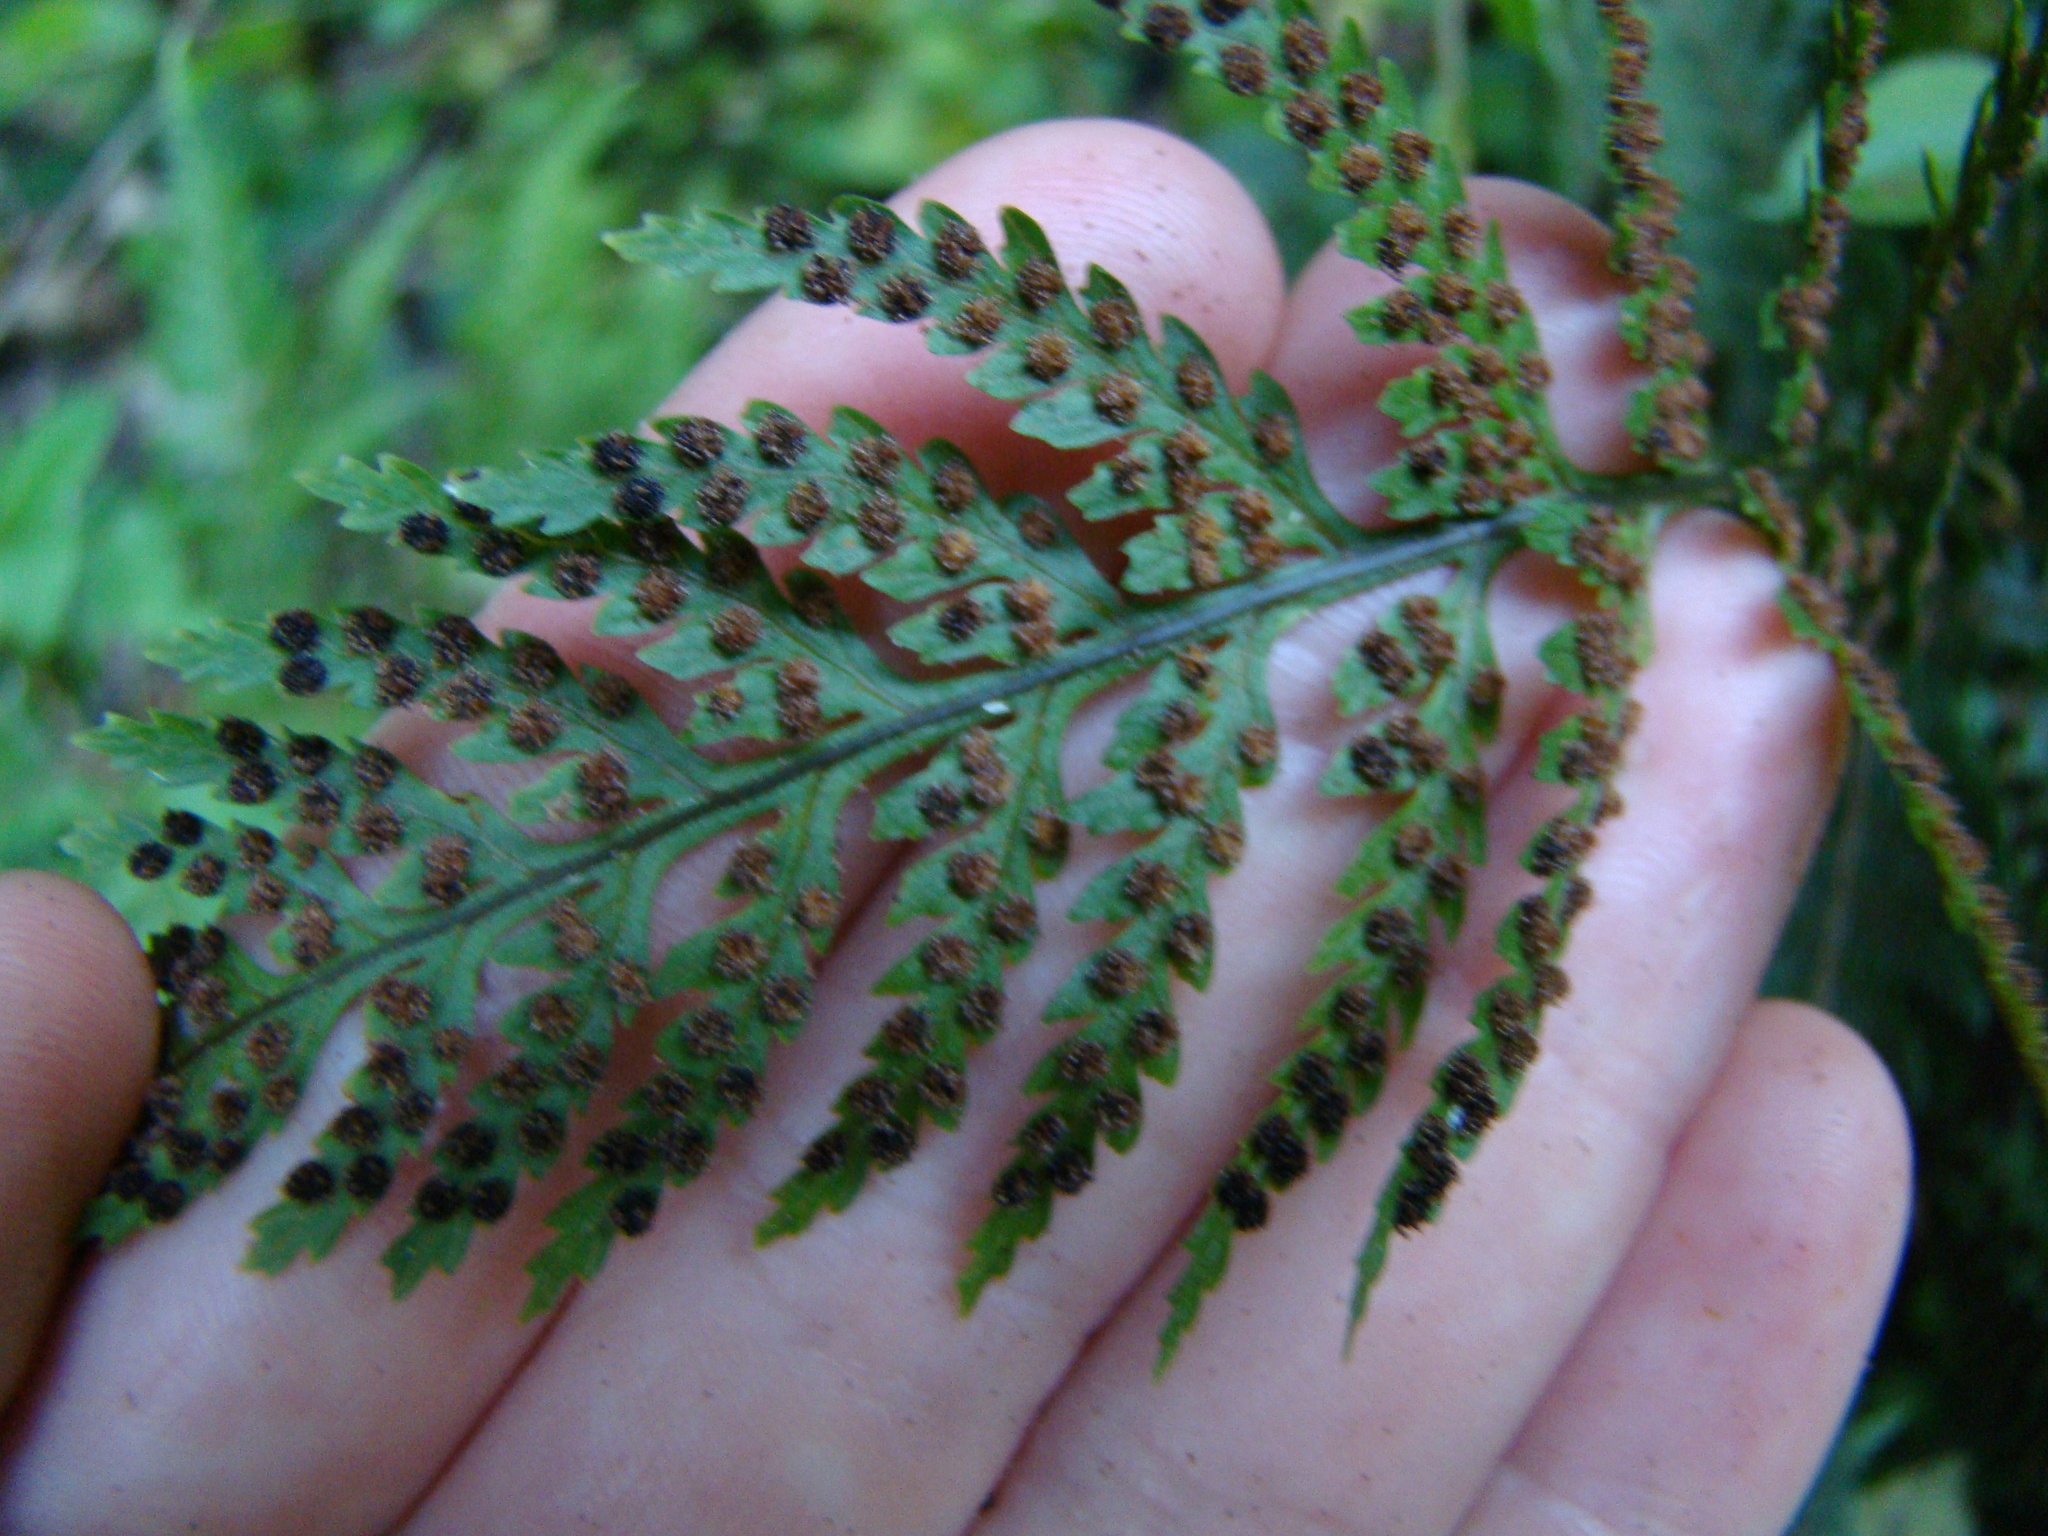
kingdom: Plantae
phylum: Tracheophyta
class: Polypodiopsida
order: Polypodiales
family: Dryopteridaceae
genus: Parapolystichum
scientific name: Parapolystichum glabellum
